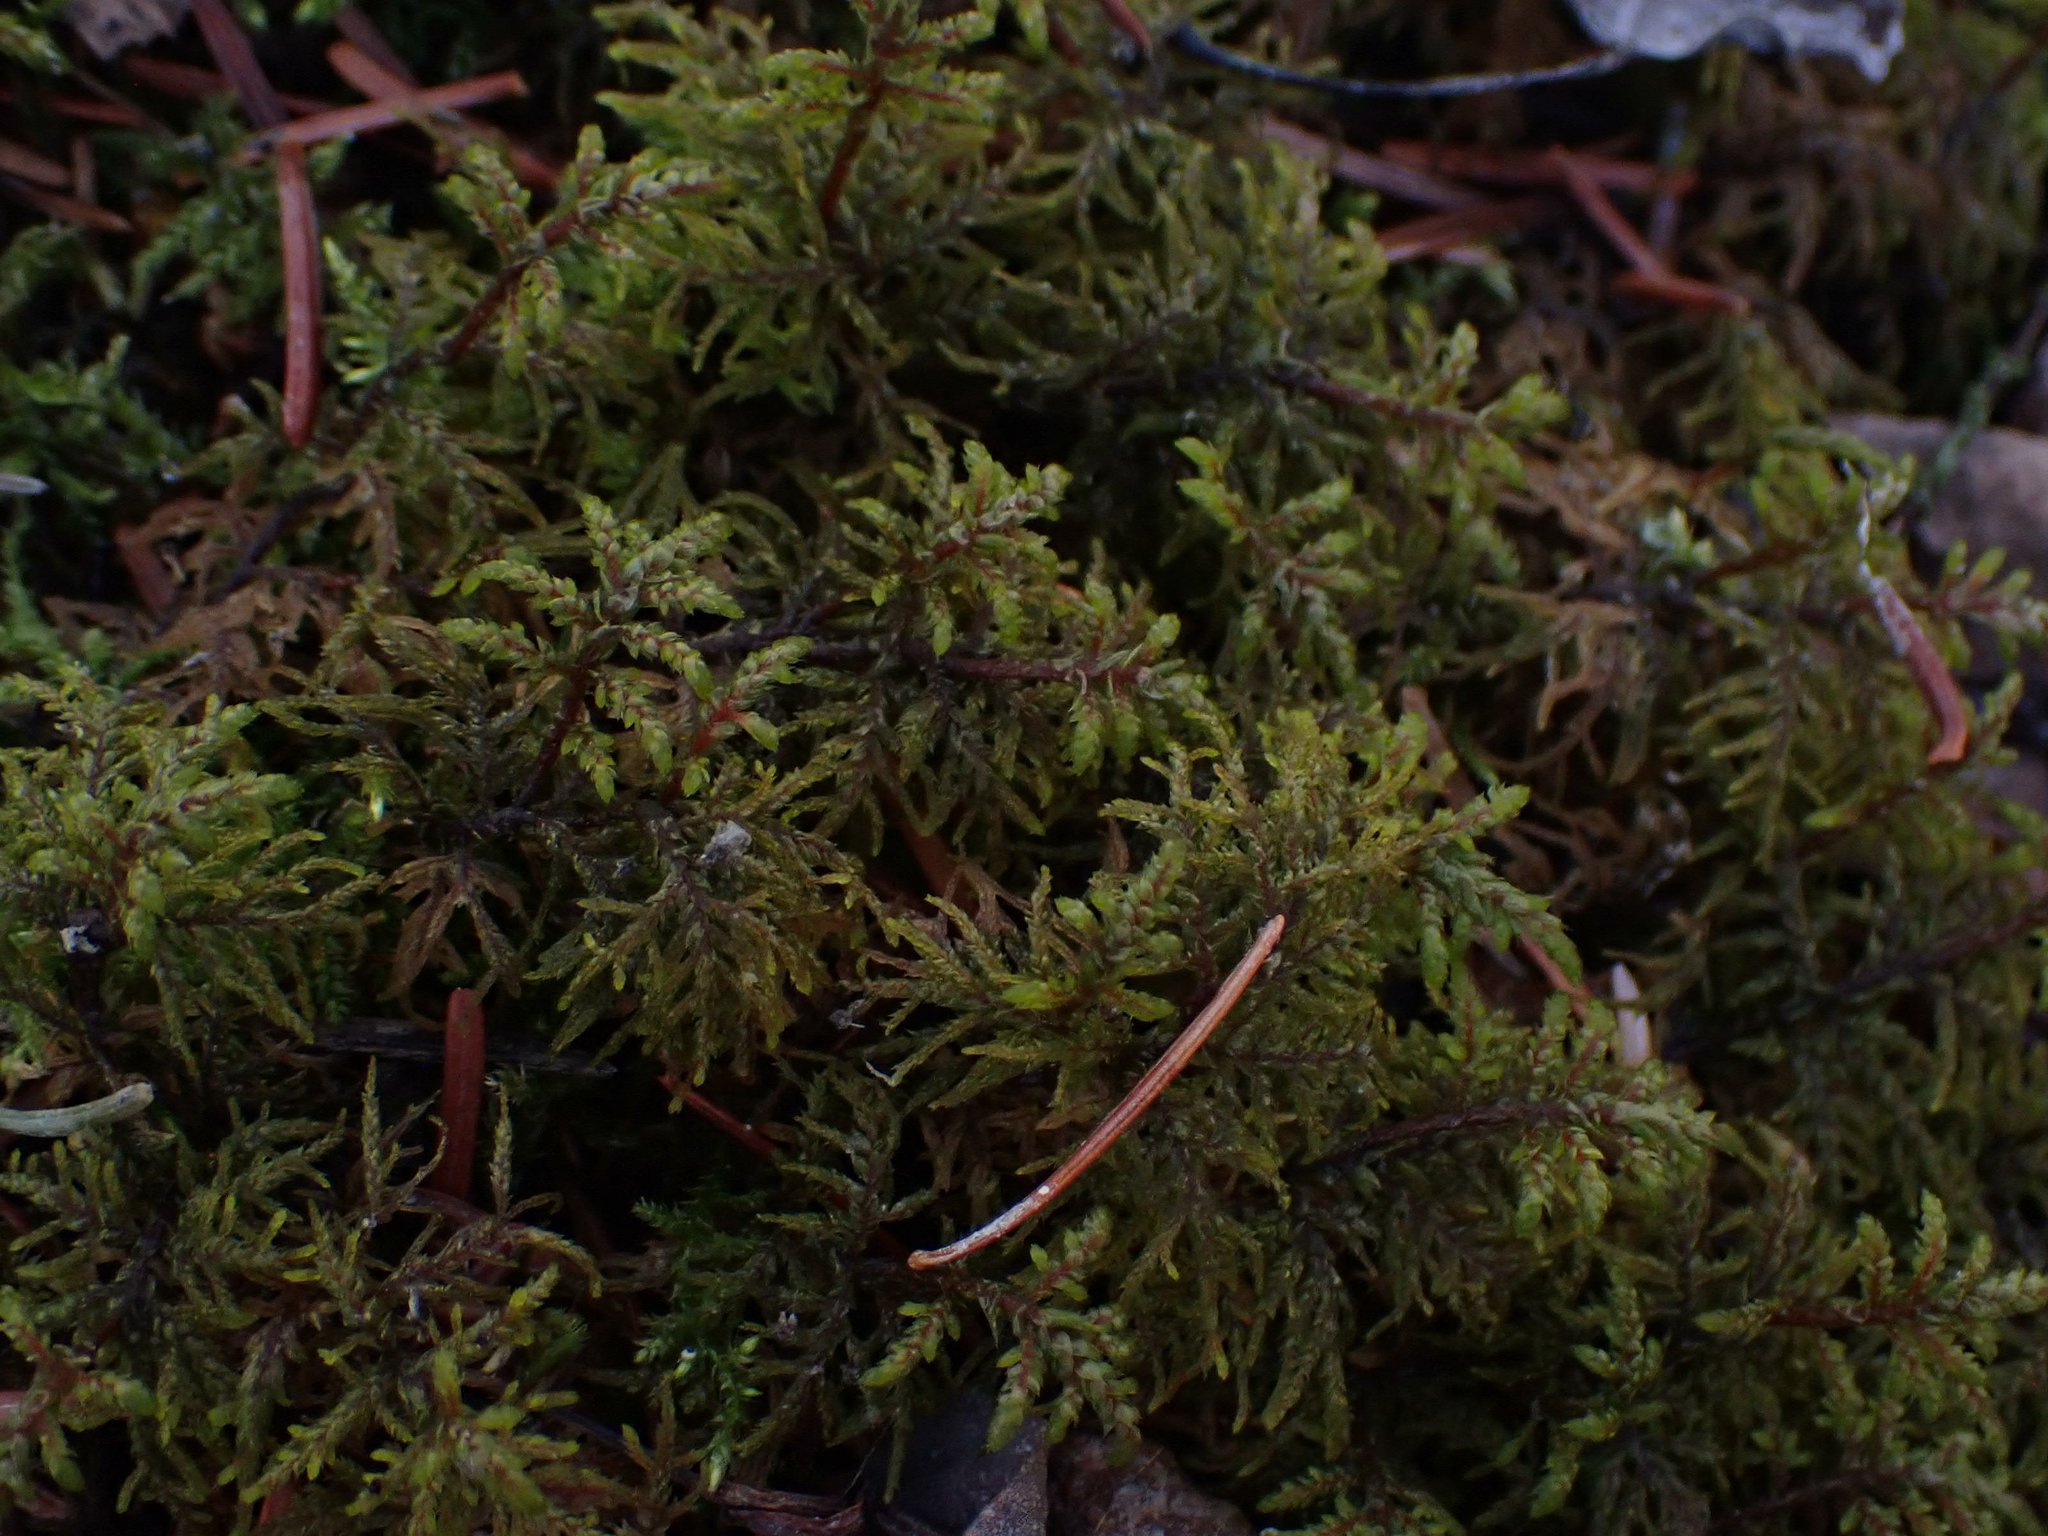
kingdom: Plantae
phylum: Bryophyta
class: Bryopsida
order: Hypnales
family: Hylocomiaceae
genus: Hylocomium
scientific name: Hylocomium splendens
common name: Stairstep moss
